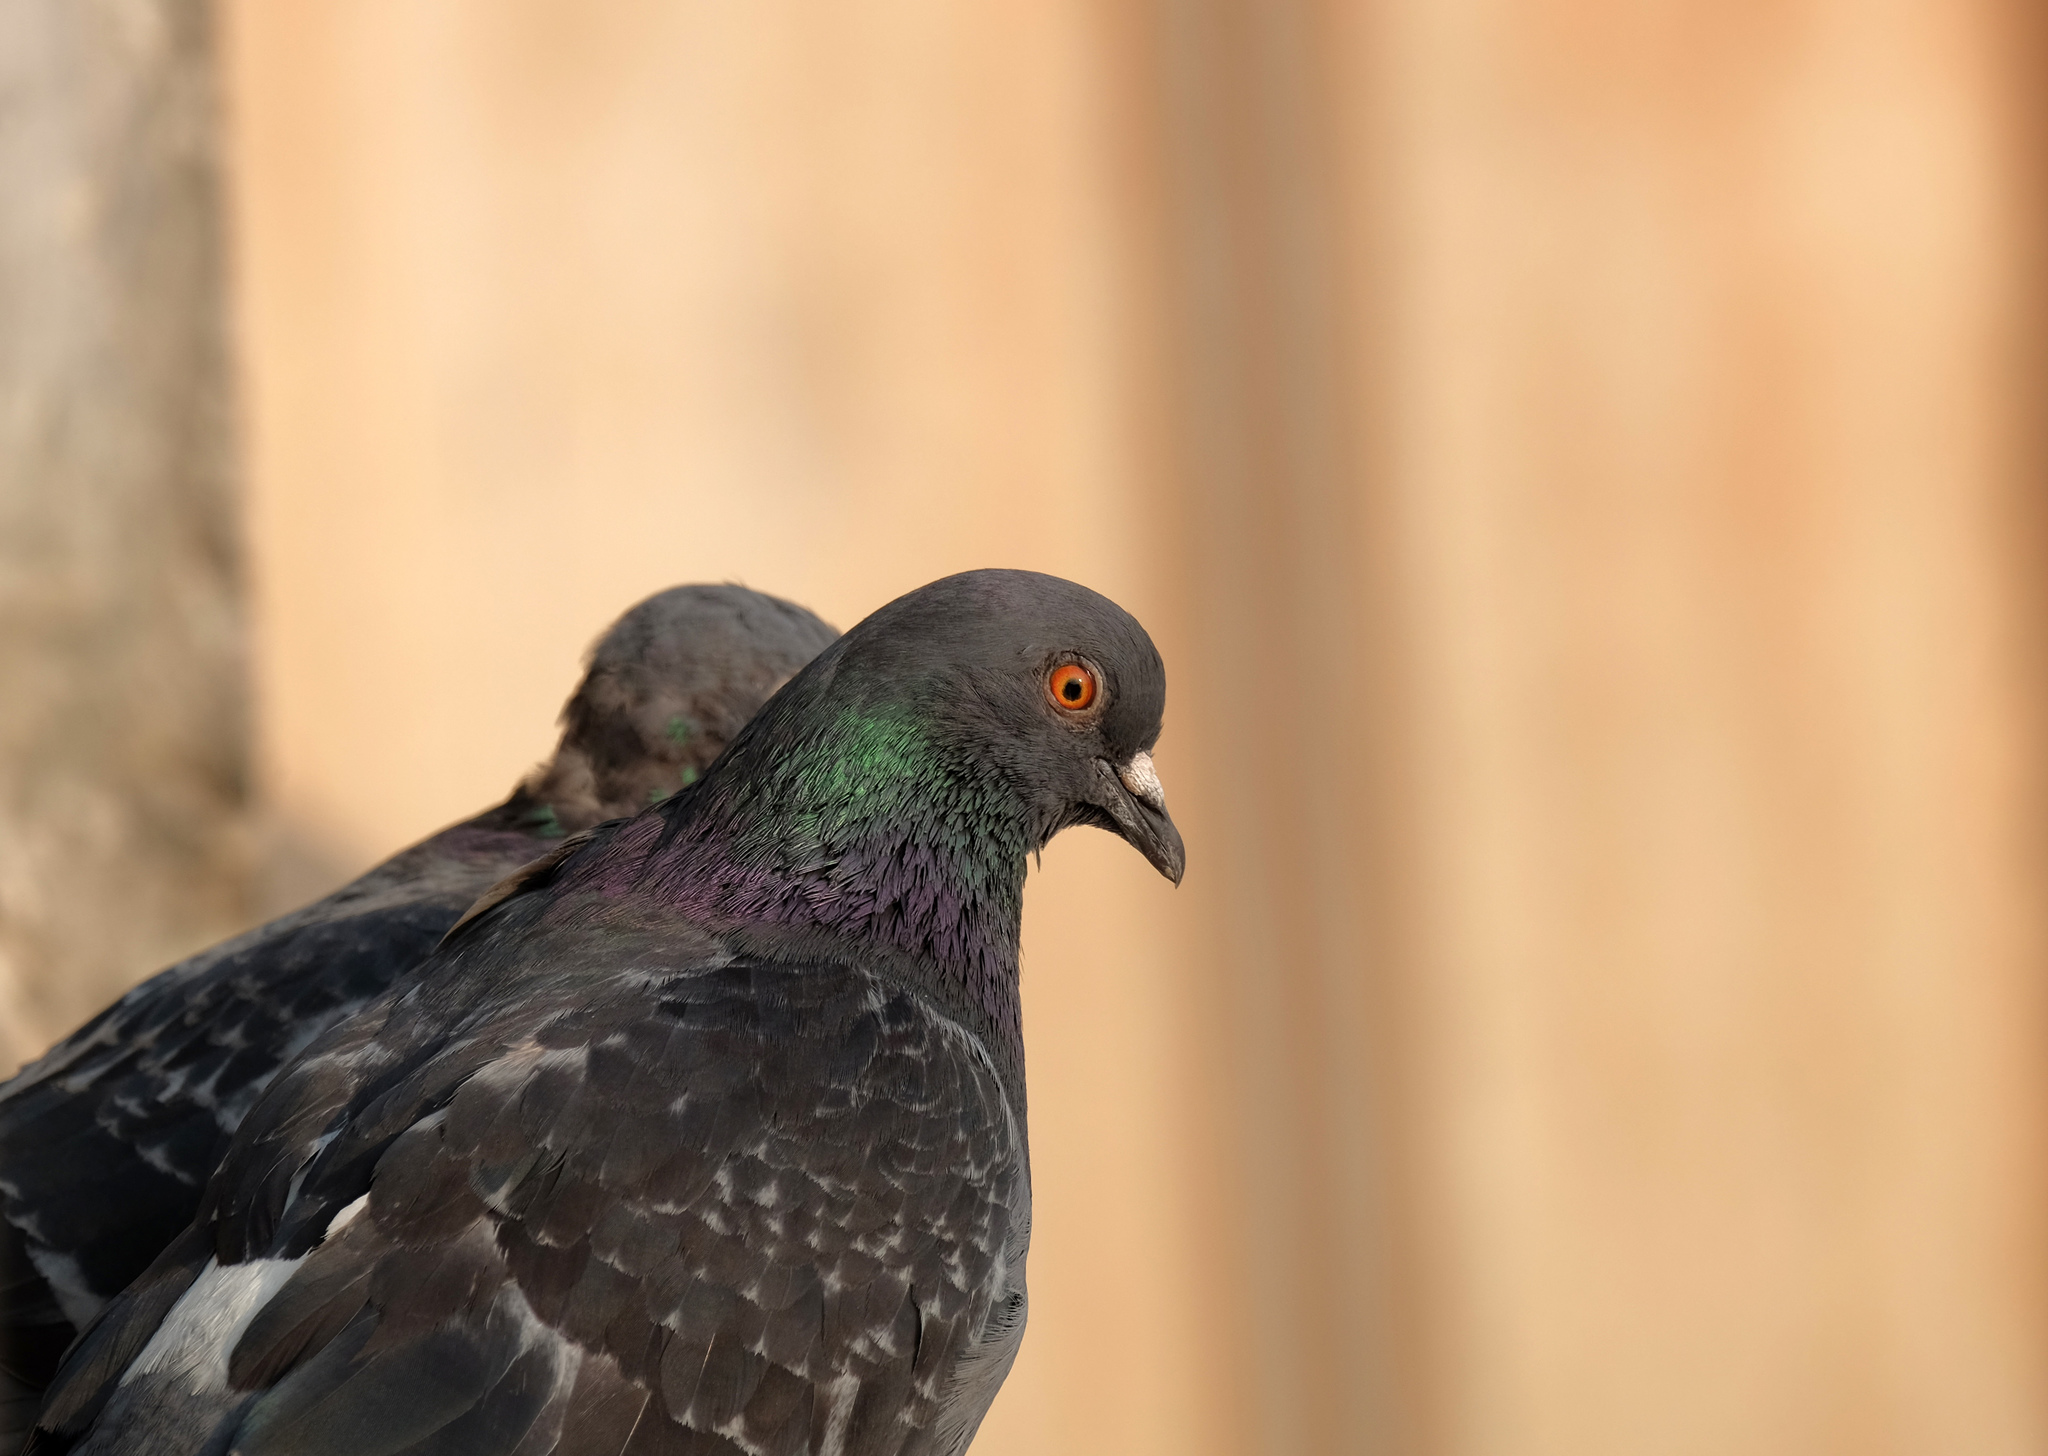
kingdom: Animalia
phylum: Chordata
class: Aves
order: Columbiformes
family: Columbidae
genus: Columba
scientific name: Columba livia
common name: Rock pigeon
